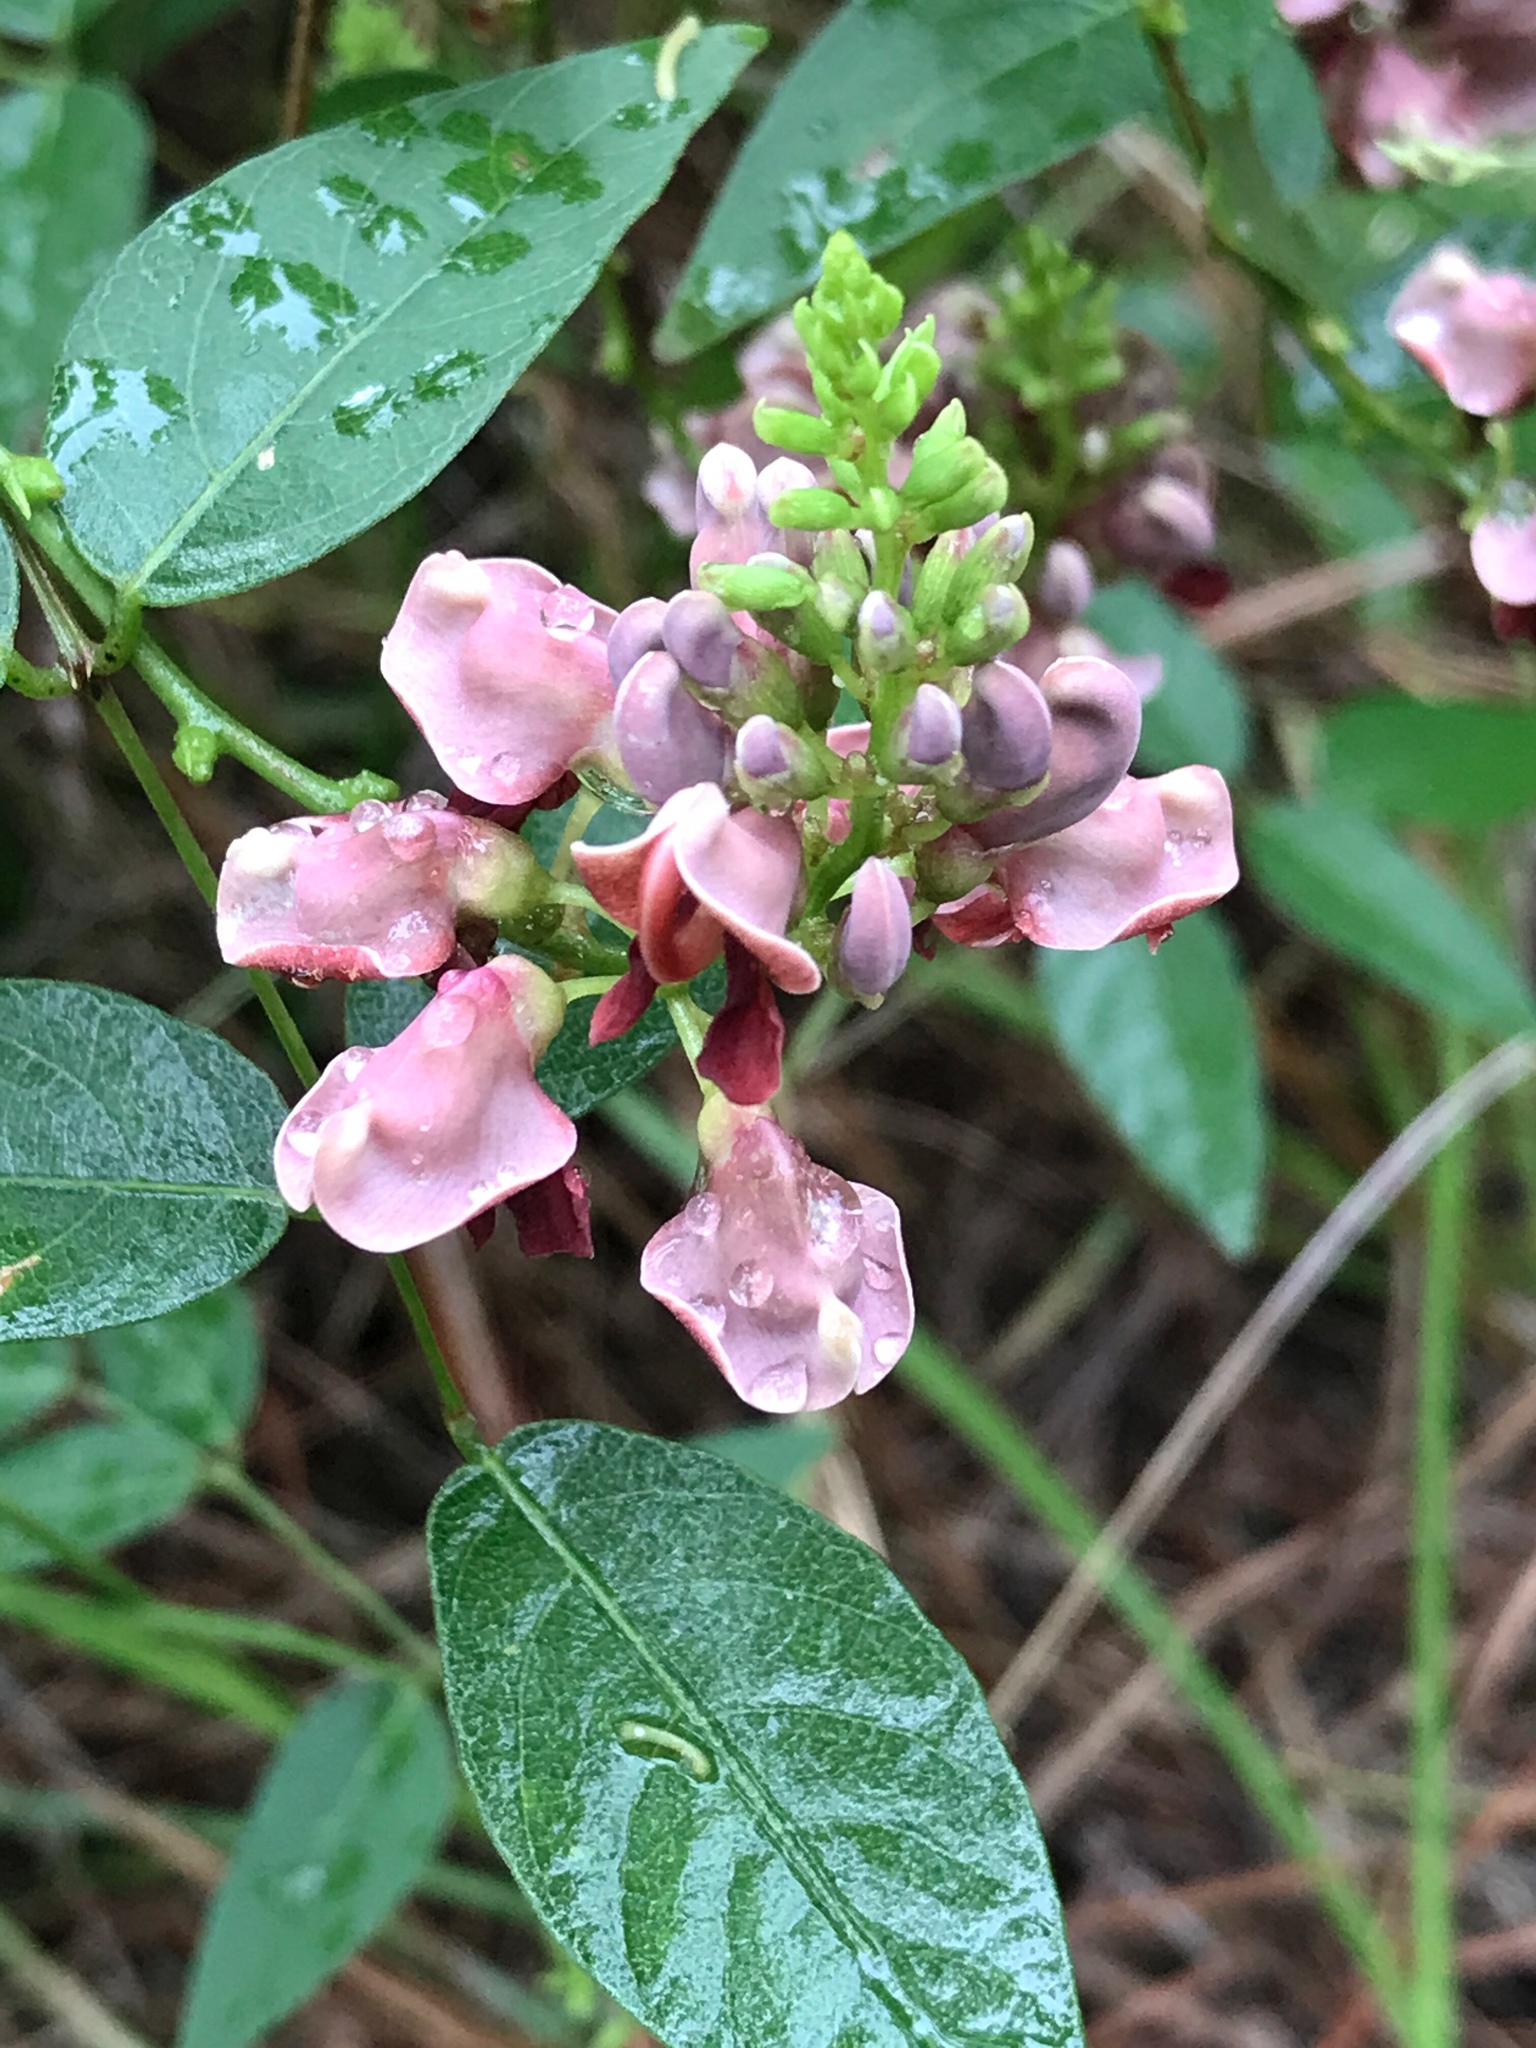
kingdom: Plantae
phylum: Tracheophyta
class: Magnoliopsida
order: Fabales
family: Fabaceae
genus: Apios
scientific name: Apios americana
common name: American potato-bean
